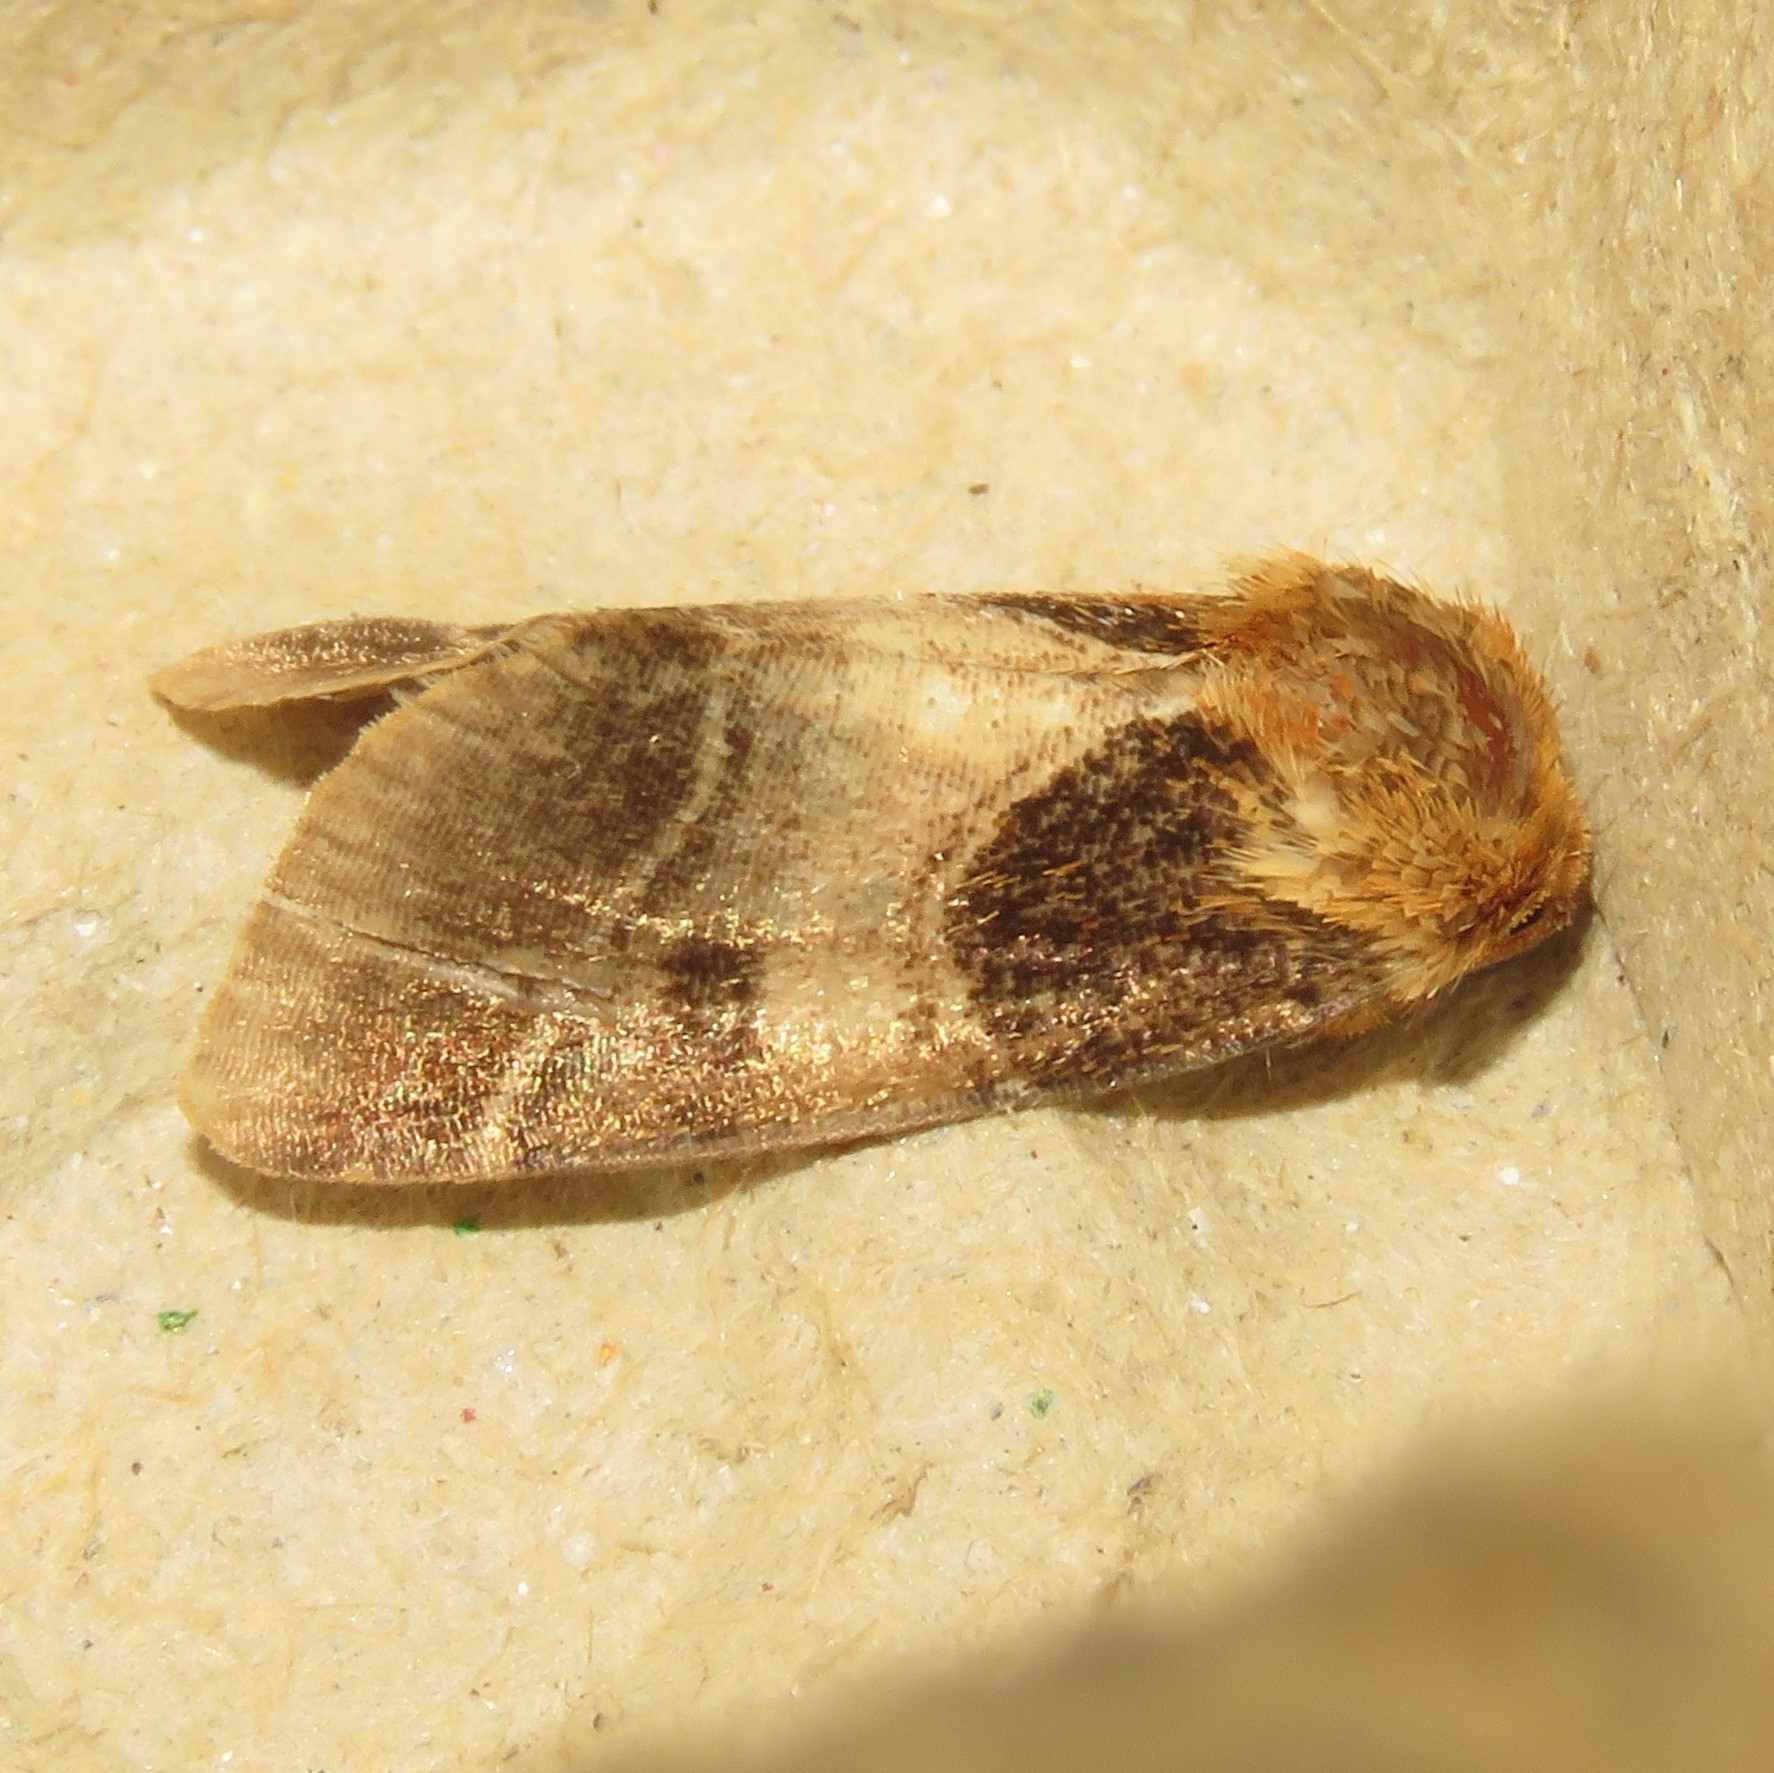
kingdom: Animalia
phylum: Arthropoda
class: Insecta
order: Lepidoptera
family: Noctuidae
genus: Schinia
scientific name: Schinia arcigera
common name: Arcigera flower moth
